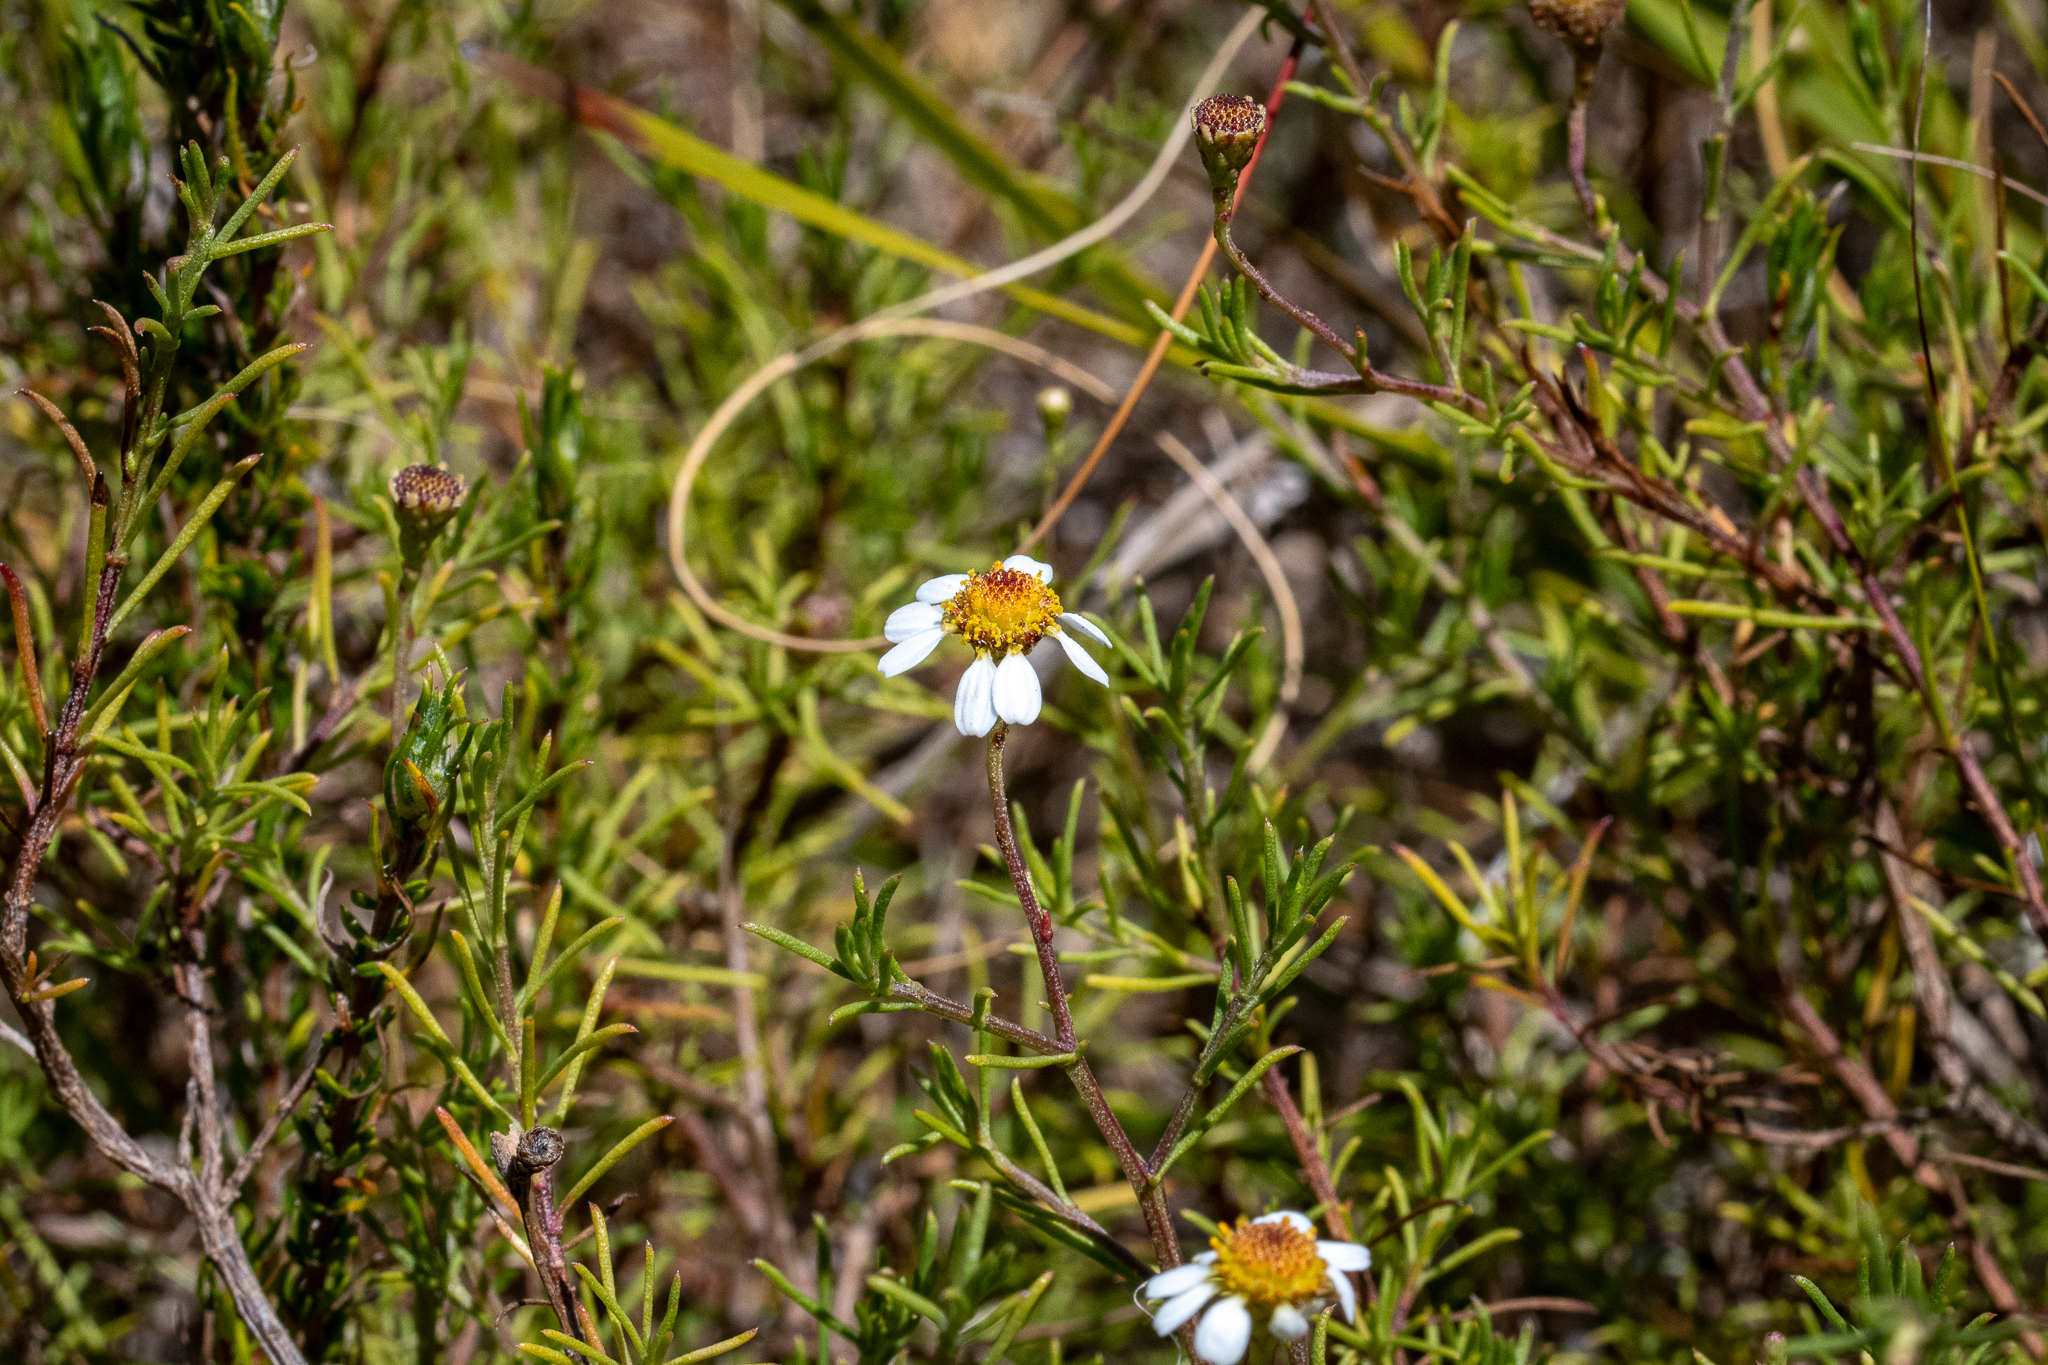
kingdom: Plantae
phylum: Tracheophyta
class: Magnoliopsida
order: Asterales
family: Asteraceae
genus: Cymbopappus
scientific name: Cymbopappus adenosolen
